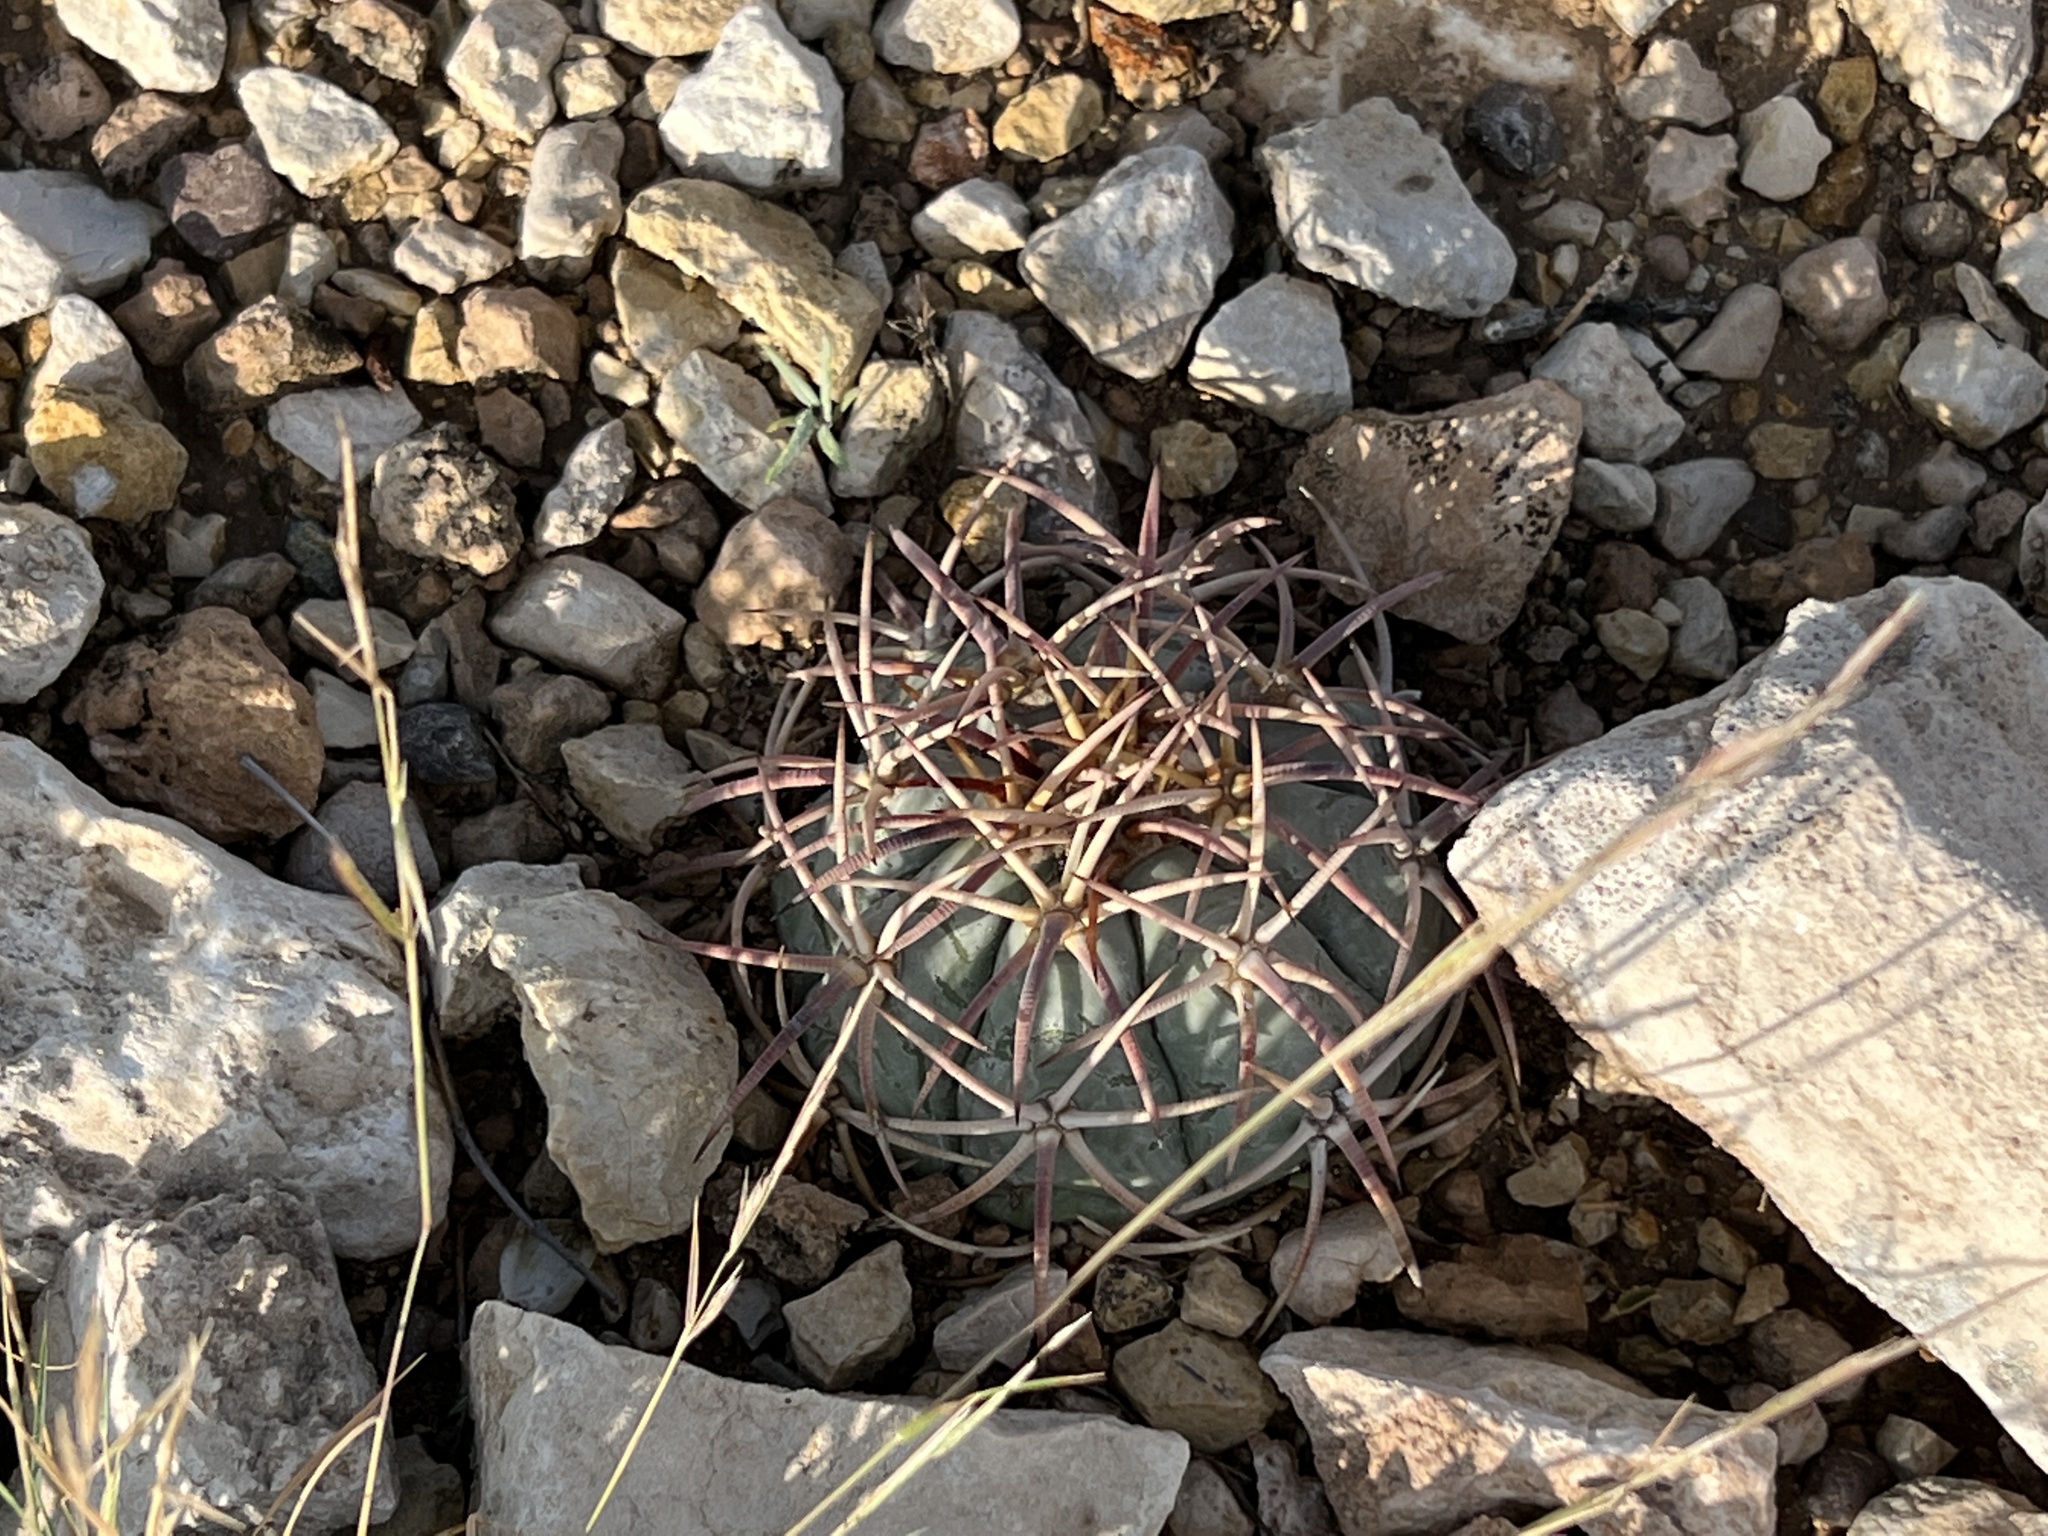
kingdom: Plantae
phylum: Tracheophyta
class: Magnoliopsida
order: Caryophyllales
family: Cactaceae
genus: Echinocactus
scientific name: Echinocactus horizonthalonius
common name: Devilshead
